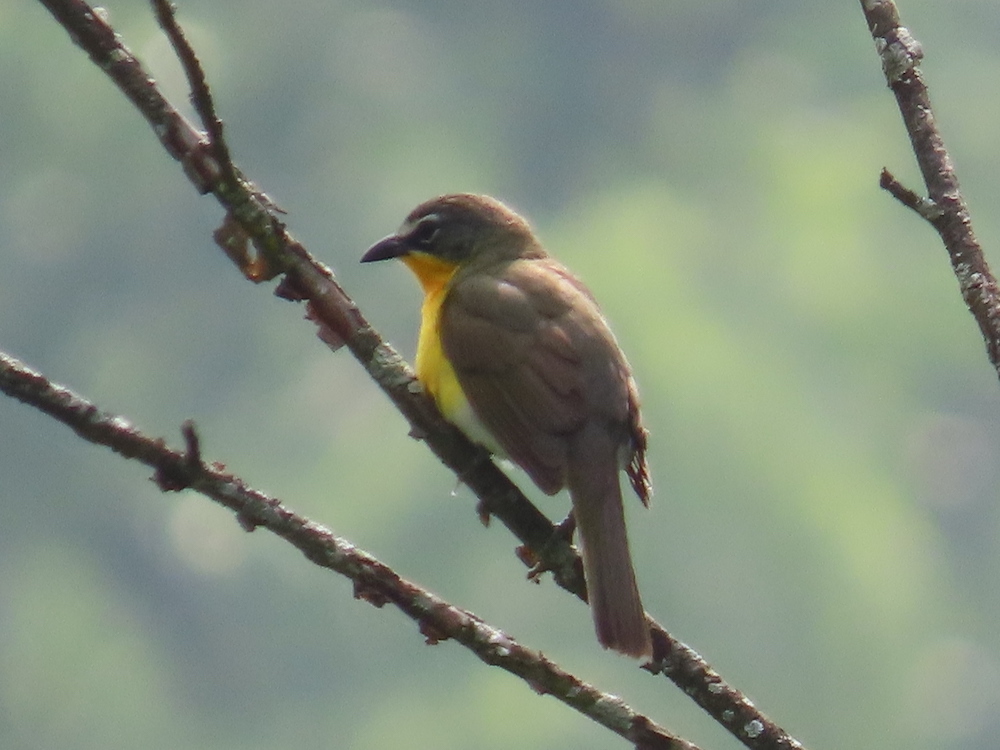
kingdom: Animalia
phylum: Chordata
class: Aves
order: Passeriformes
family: Parulidae
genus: Icteria
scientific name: Icteria virens
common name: Yellow-breasted chat
